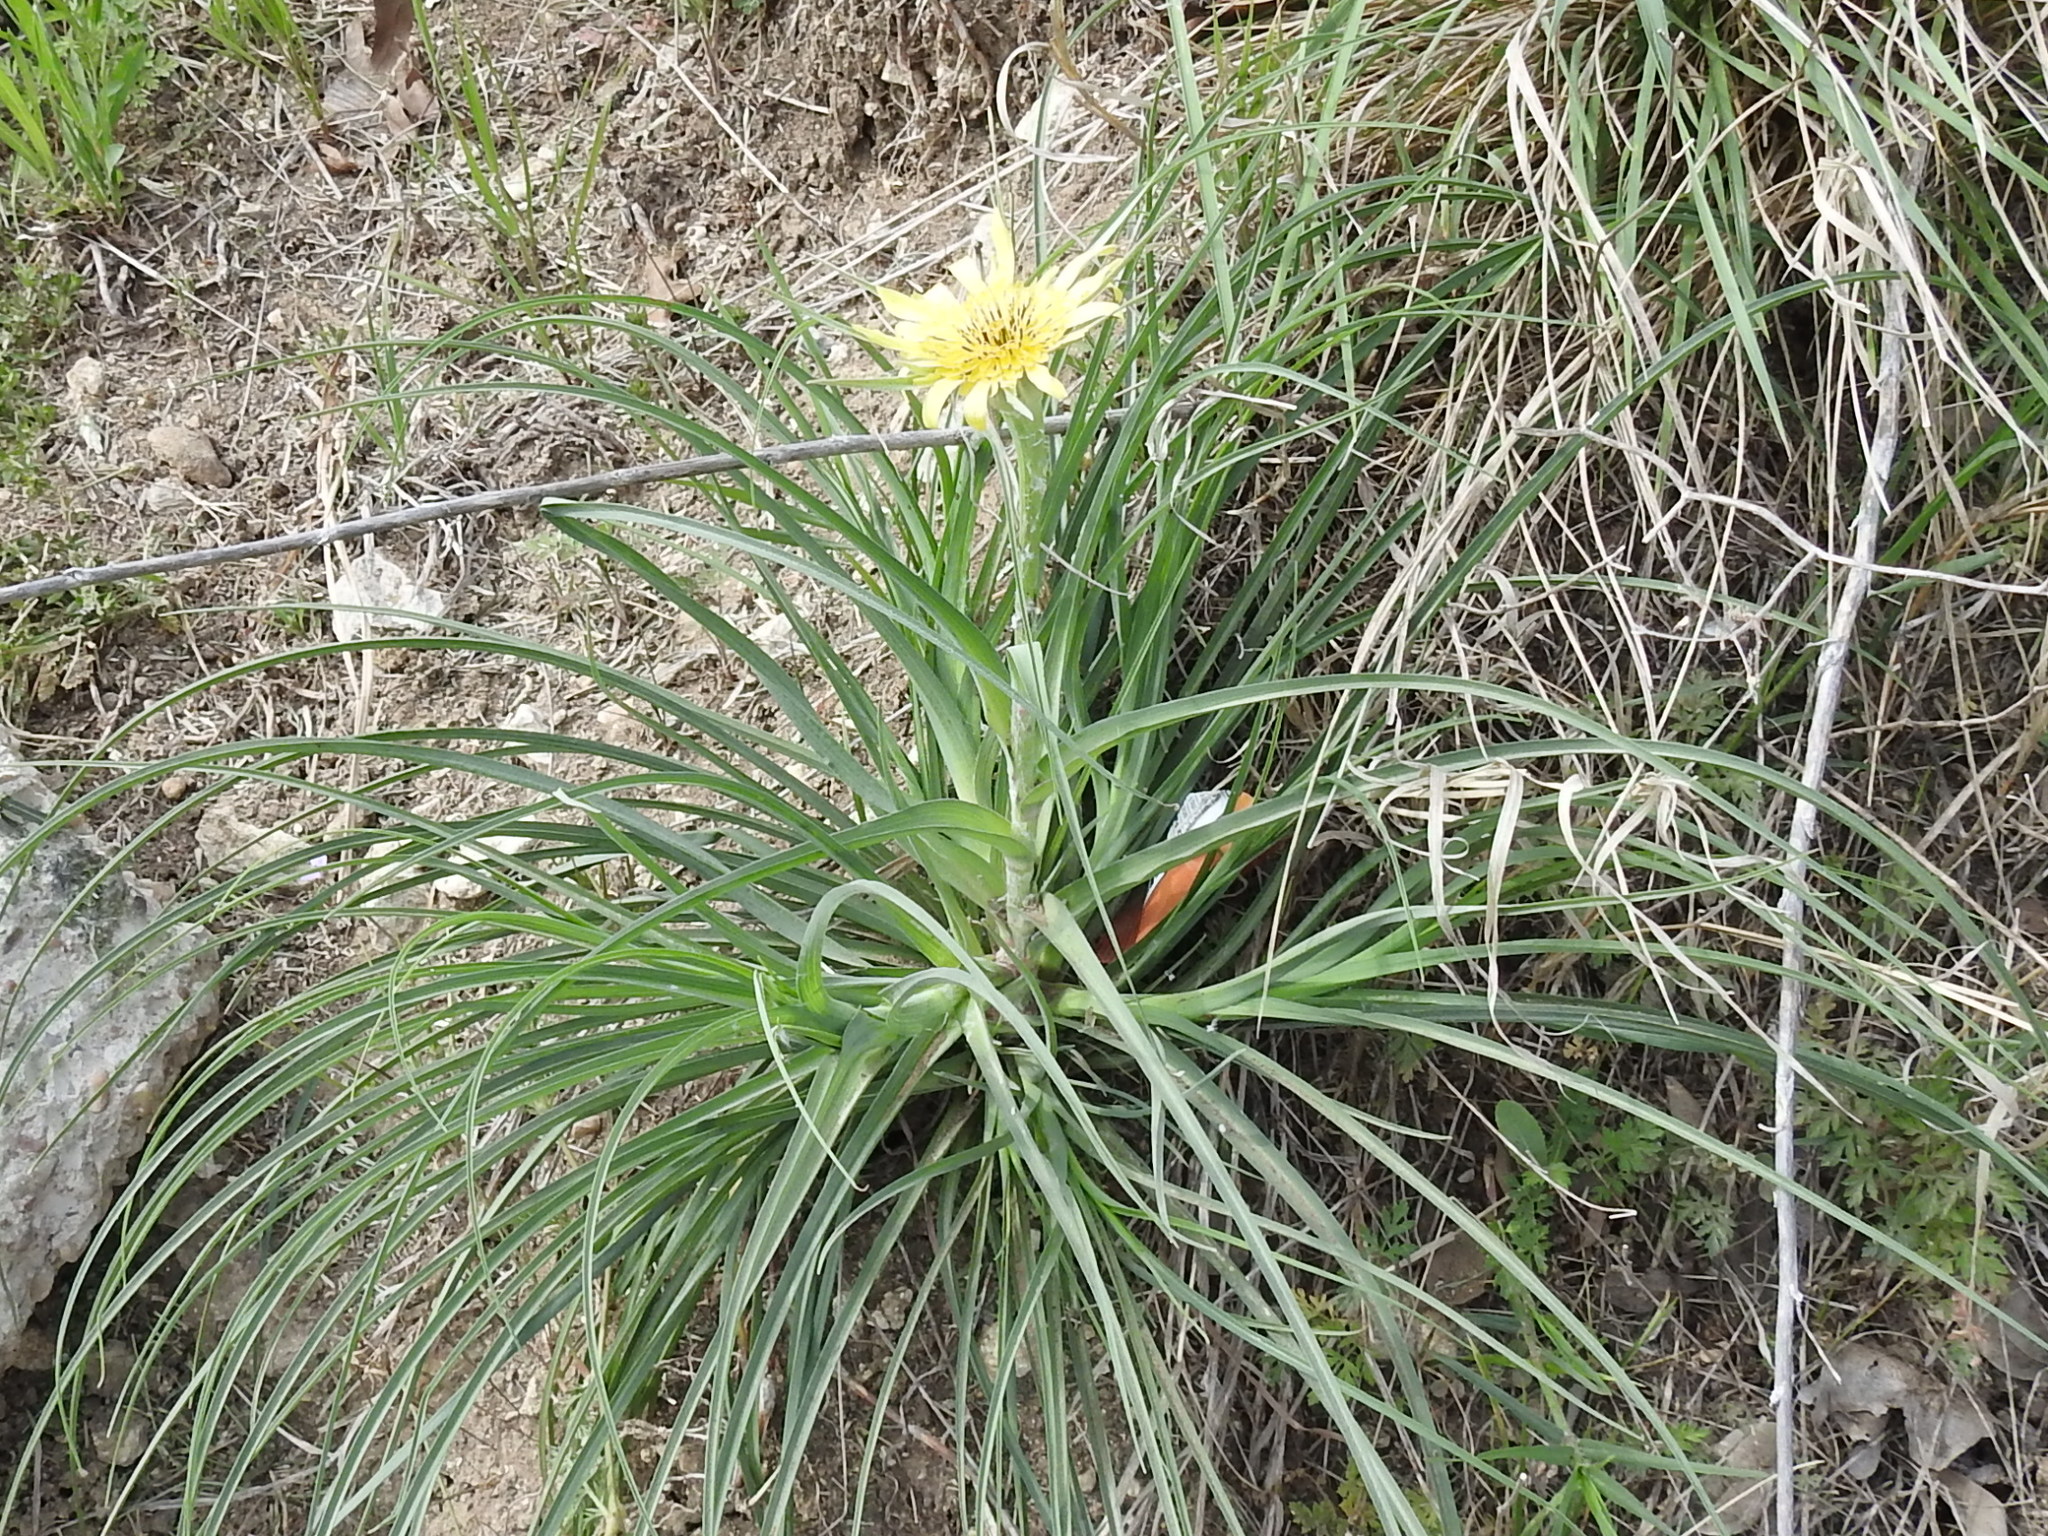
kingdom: Plantae
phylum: Tracheophyta
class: Magnoliopsida
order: Asterales
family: Asteraceae
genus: Tragopogon
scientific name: Tragopogon dubius
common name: Yellow salsify
